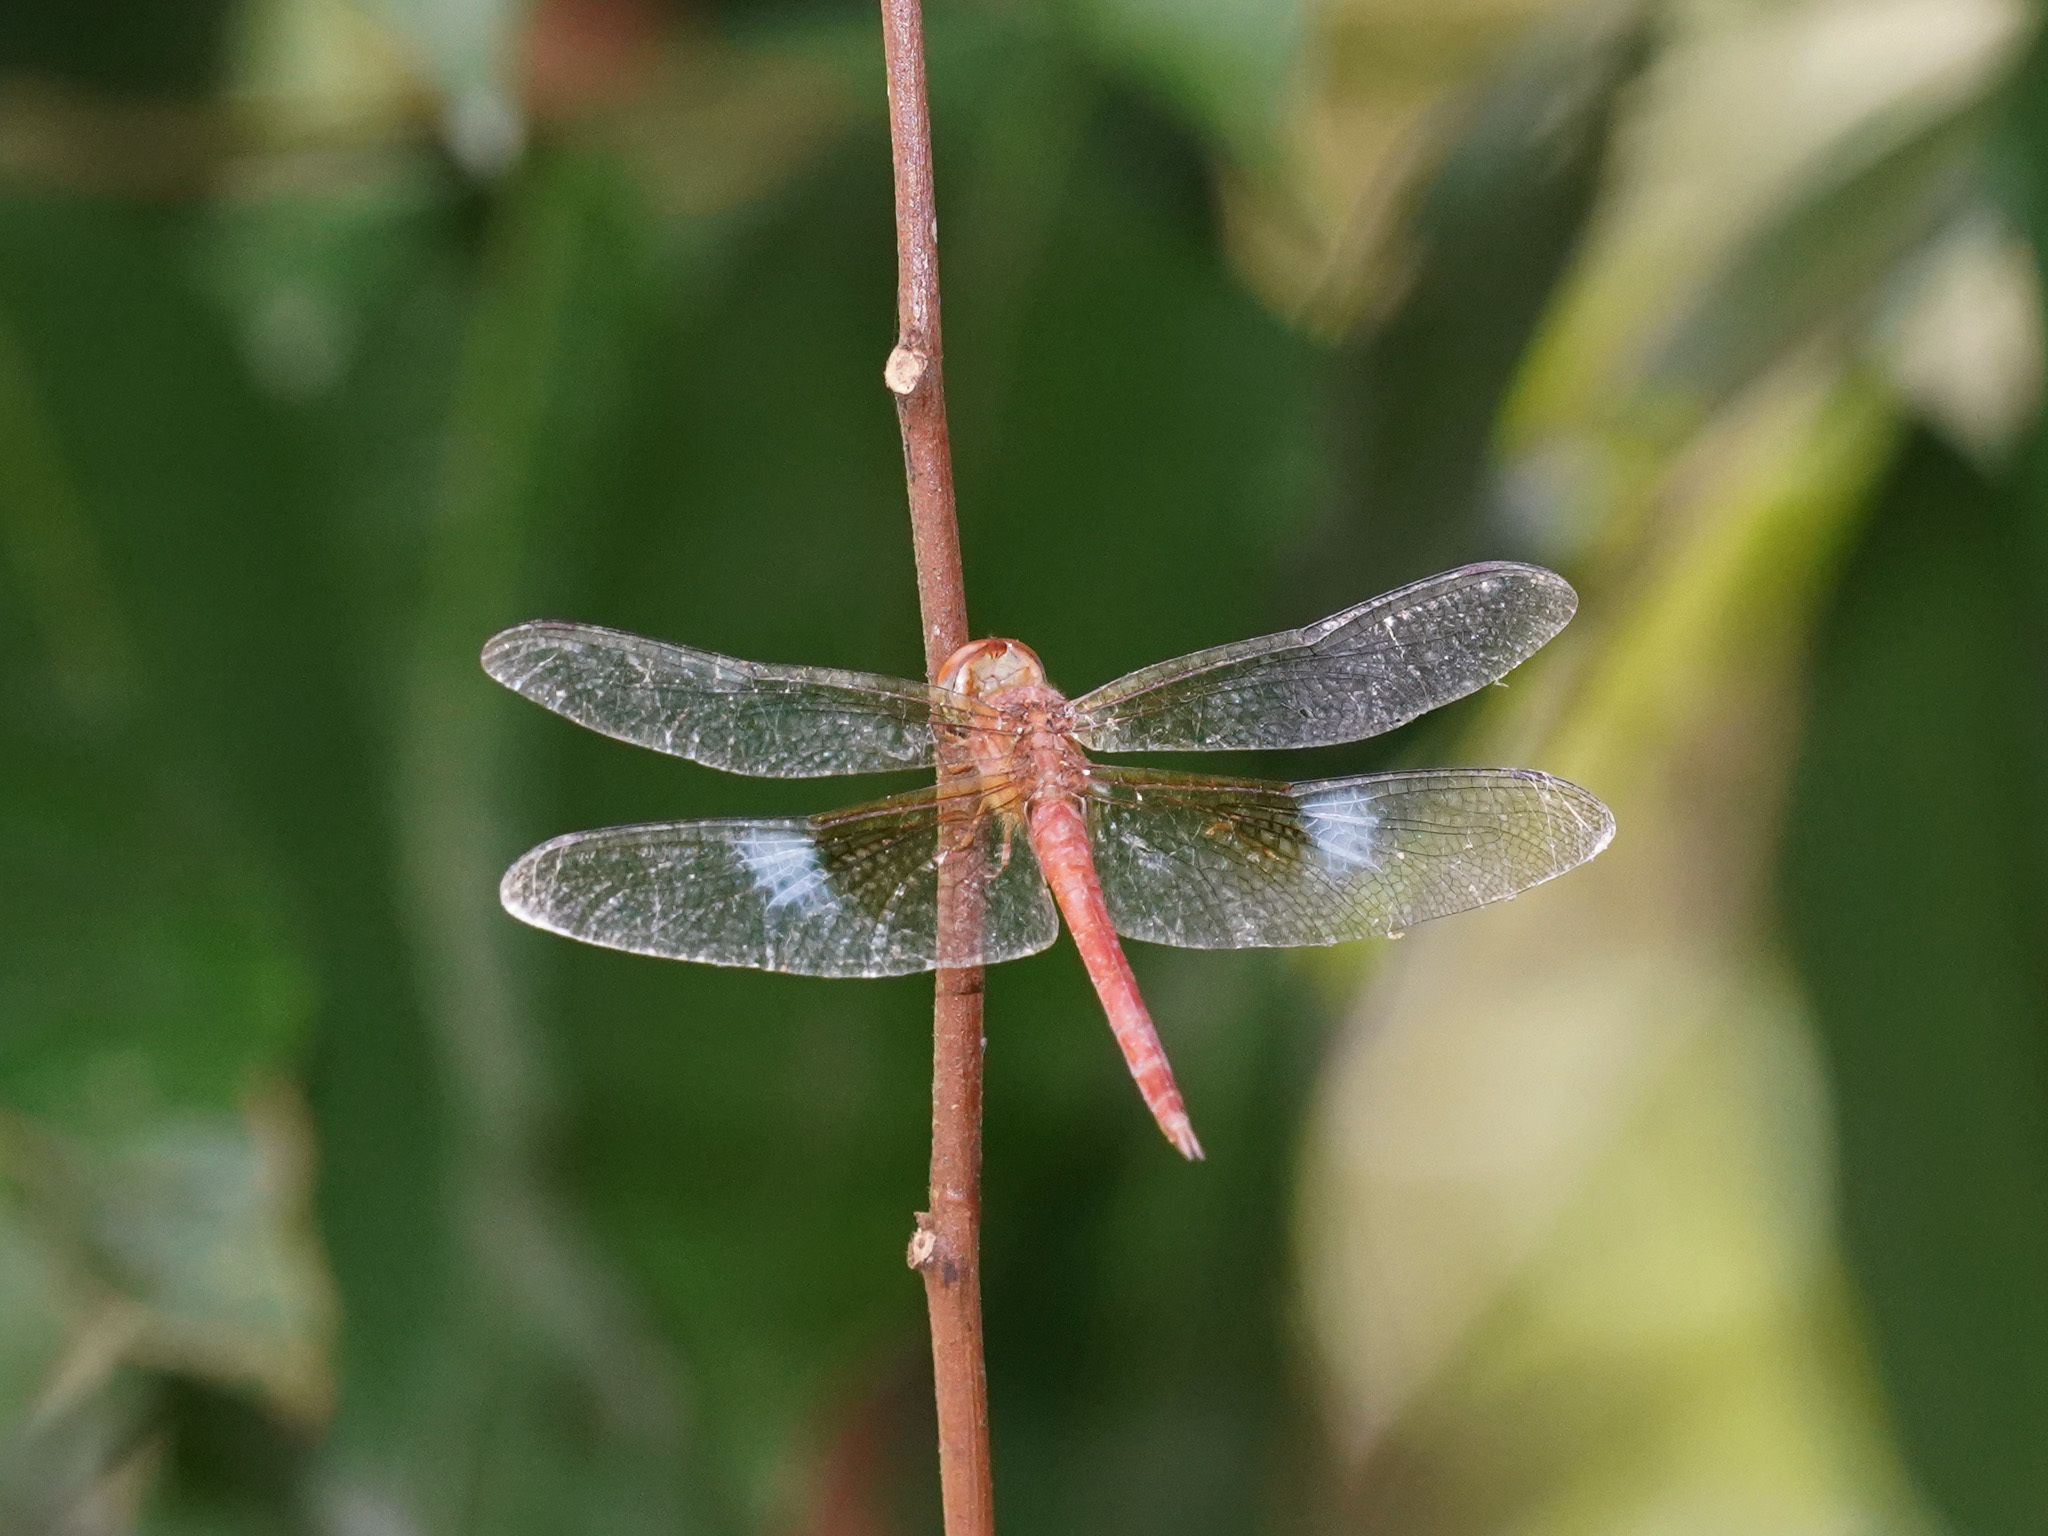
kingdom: Animalia
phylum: Arthropoda
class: Insecta
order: Odonata
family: Libellulidae
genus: Tholymis
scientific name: Tholymis tillarga
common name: Coral-tailed cloud wing
